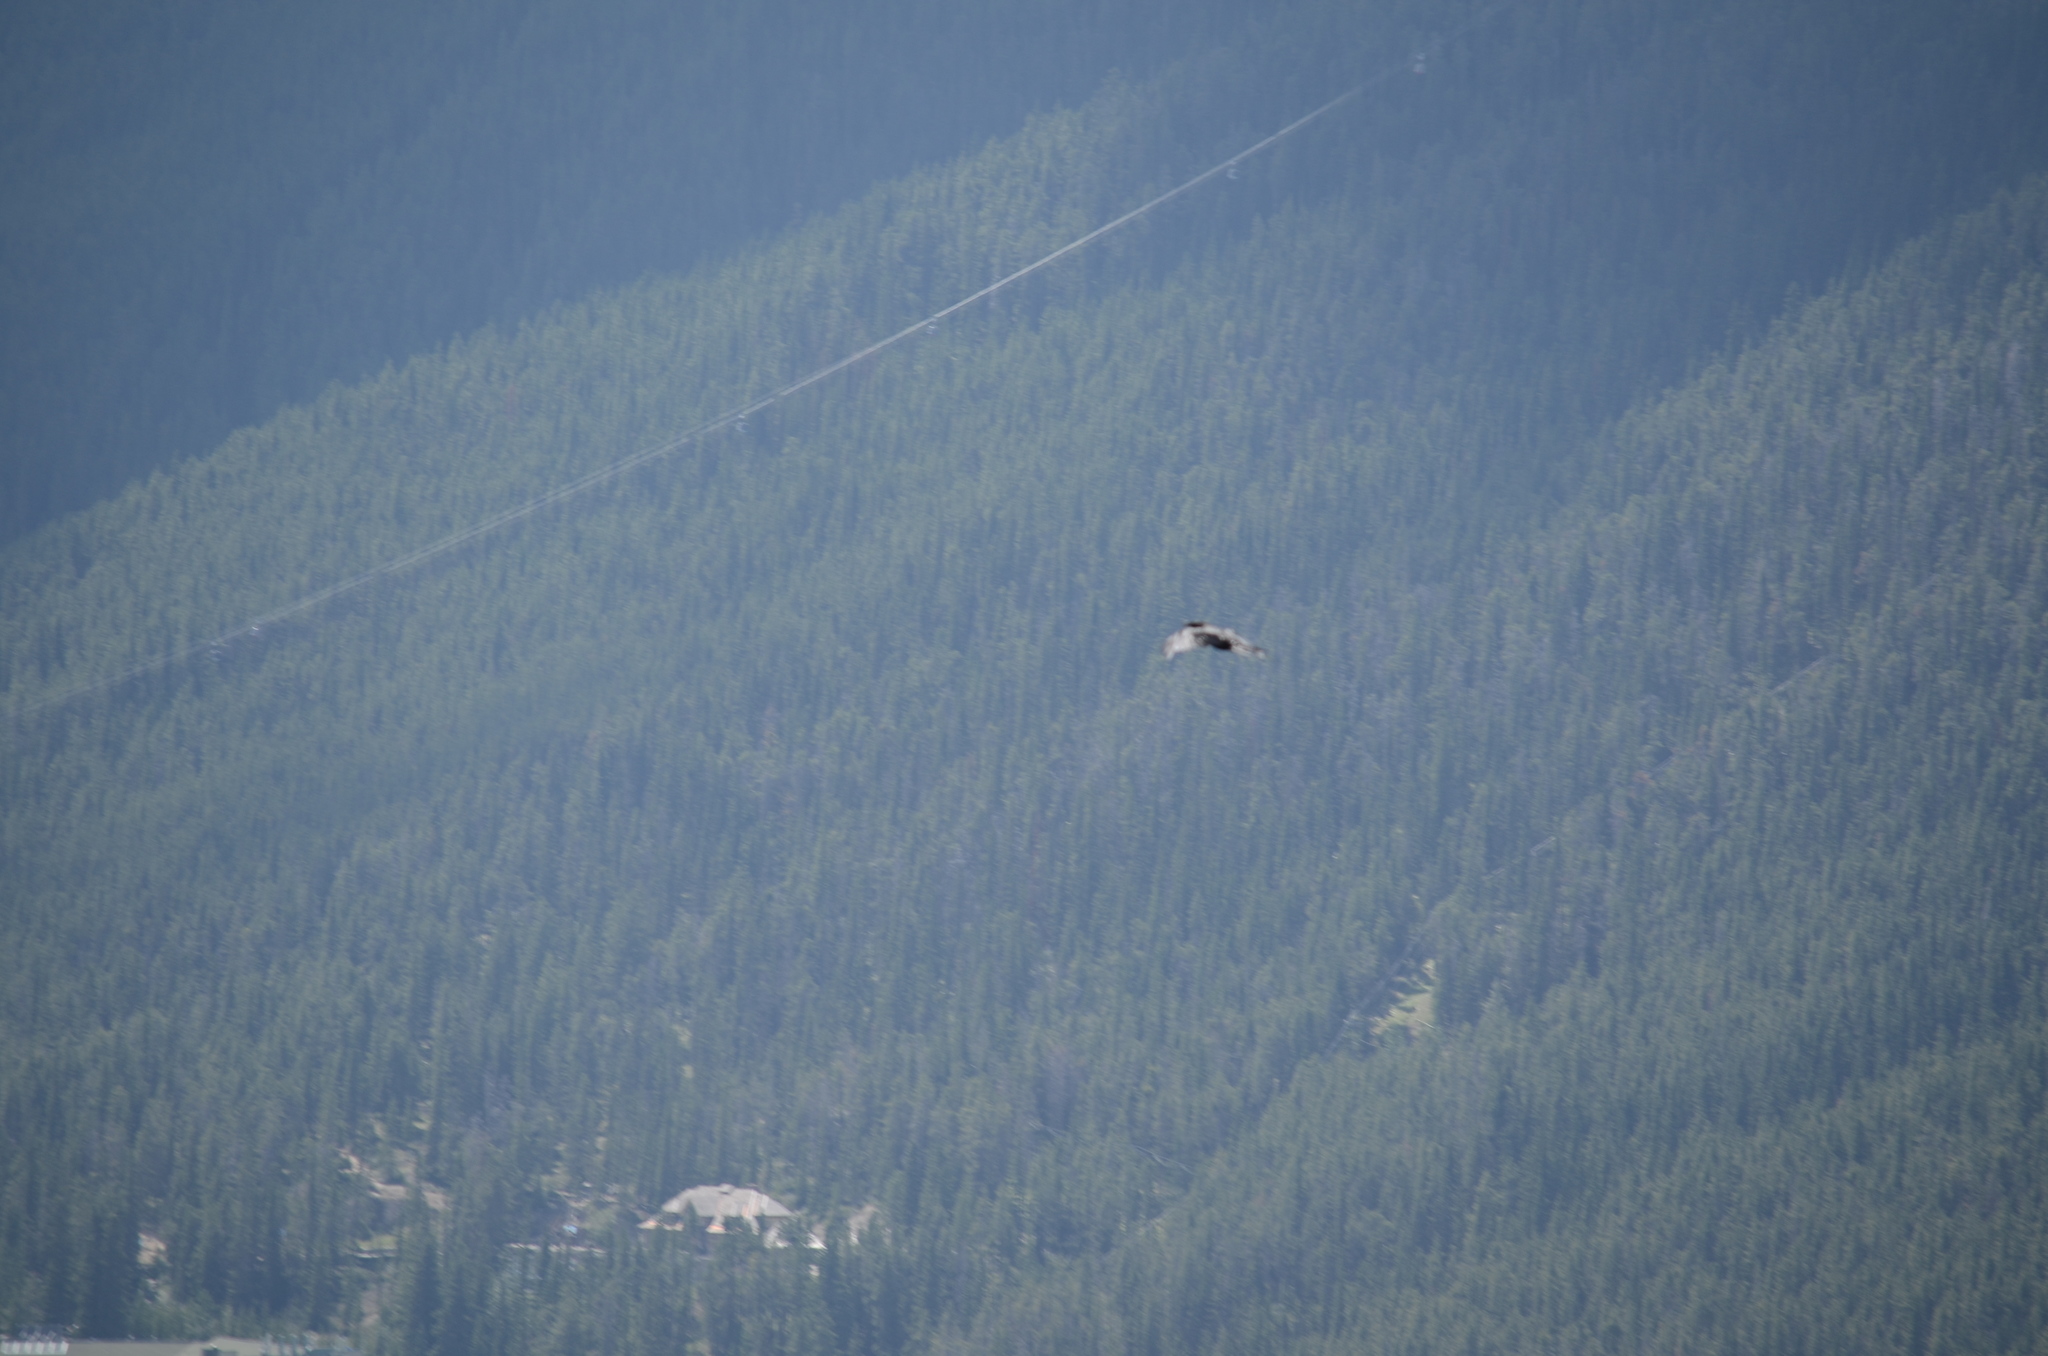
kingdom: Animalia
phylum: Chordata
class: Aves
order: Passeriformes
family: Corvidae
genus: Corvus
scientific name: Corvus corax
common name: Common raven
